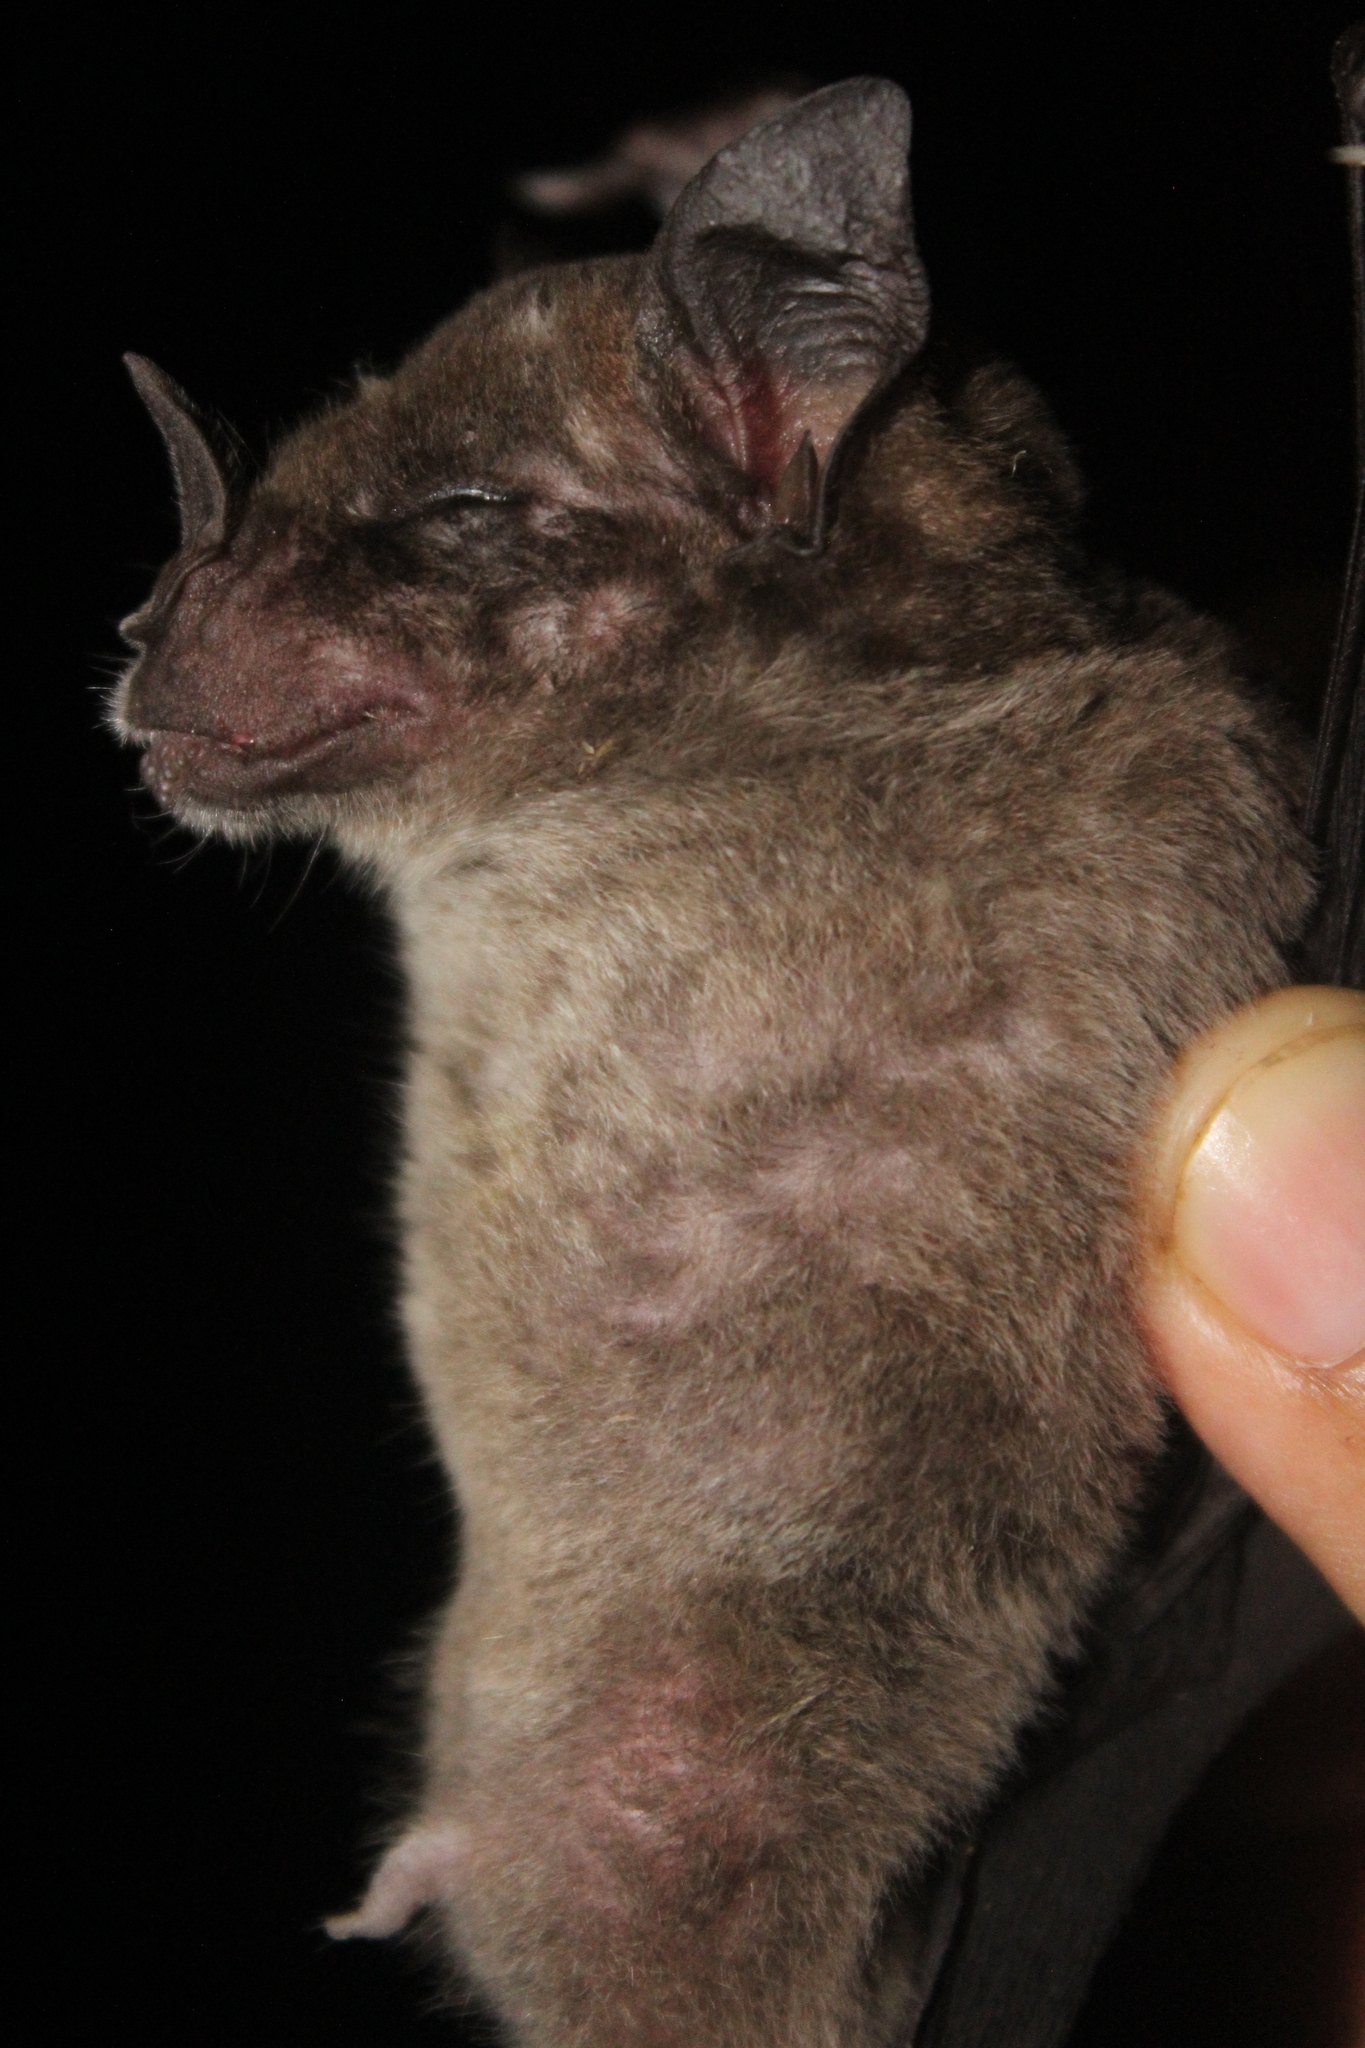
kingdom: Animalia
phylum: Chordata
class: Mammalia
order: Chiroptera
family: Phyllostomidae
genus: Phyllostomus
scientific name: Phyllostomus discolor
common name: Pale spear-nosed bat
